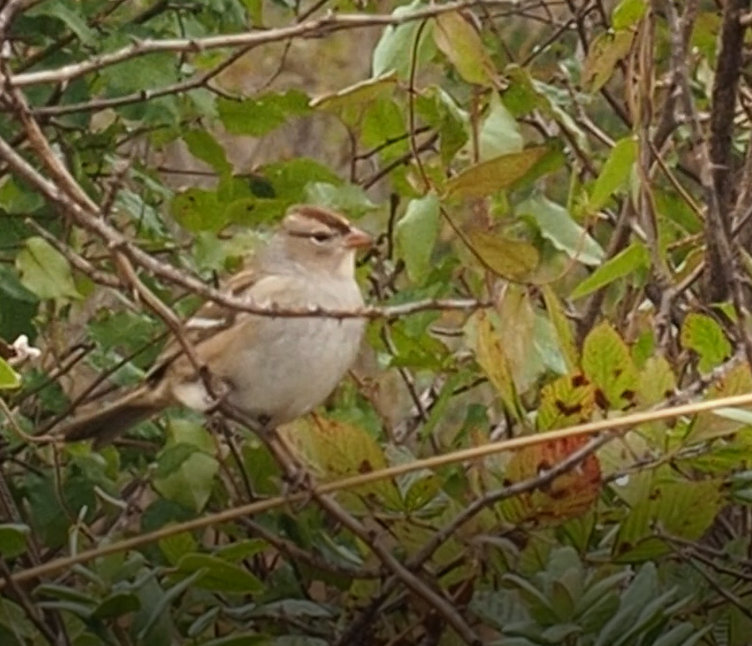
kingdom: Animalia
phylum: Chordata
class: Aves
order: Passeriformes
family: Passerellidae
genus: Zonotrichia
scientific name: Zonotrichia leucophrys
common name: White-crowned sparrow
